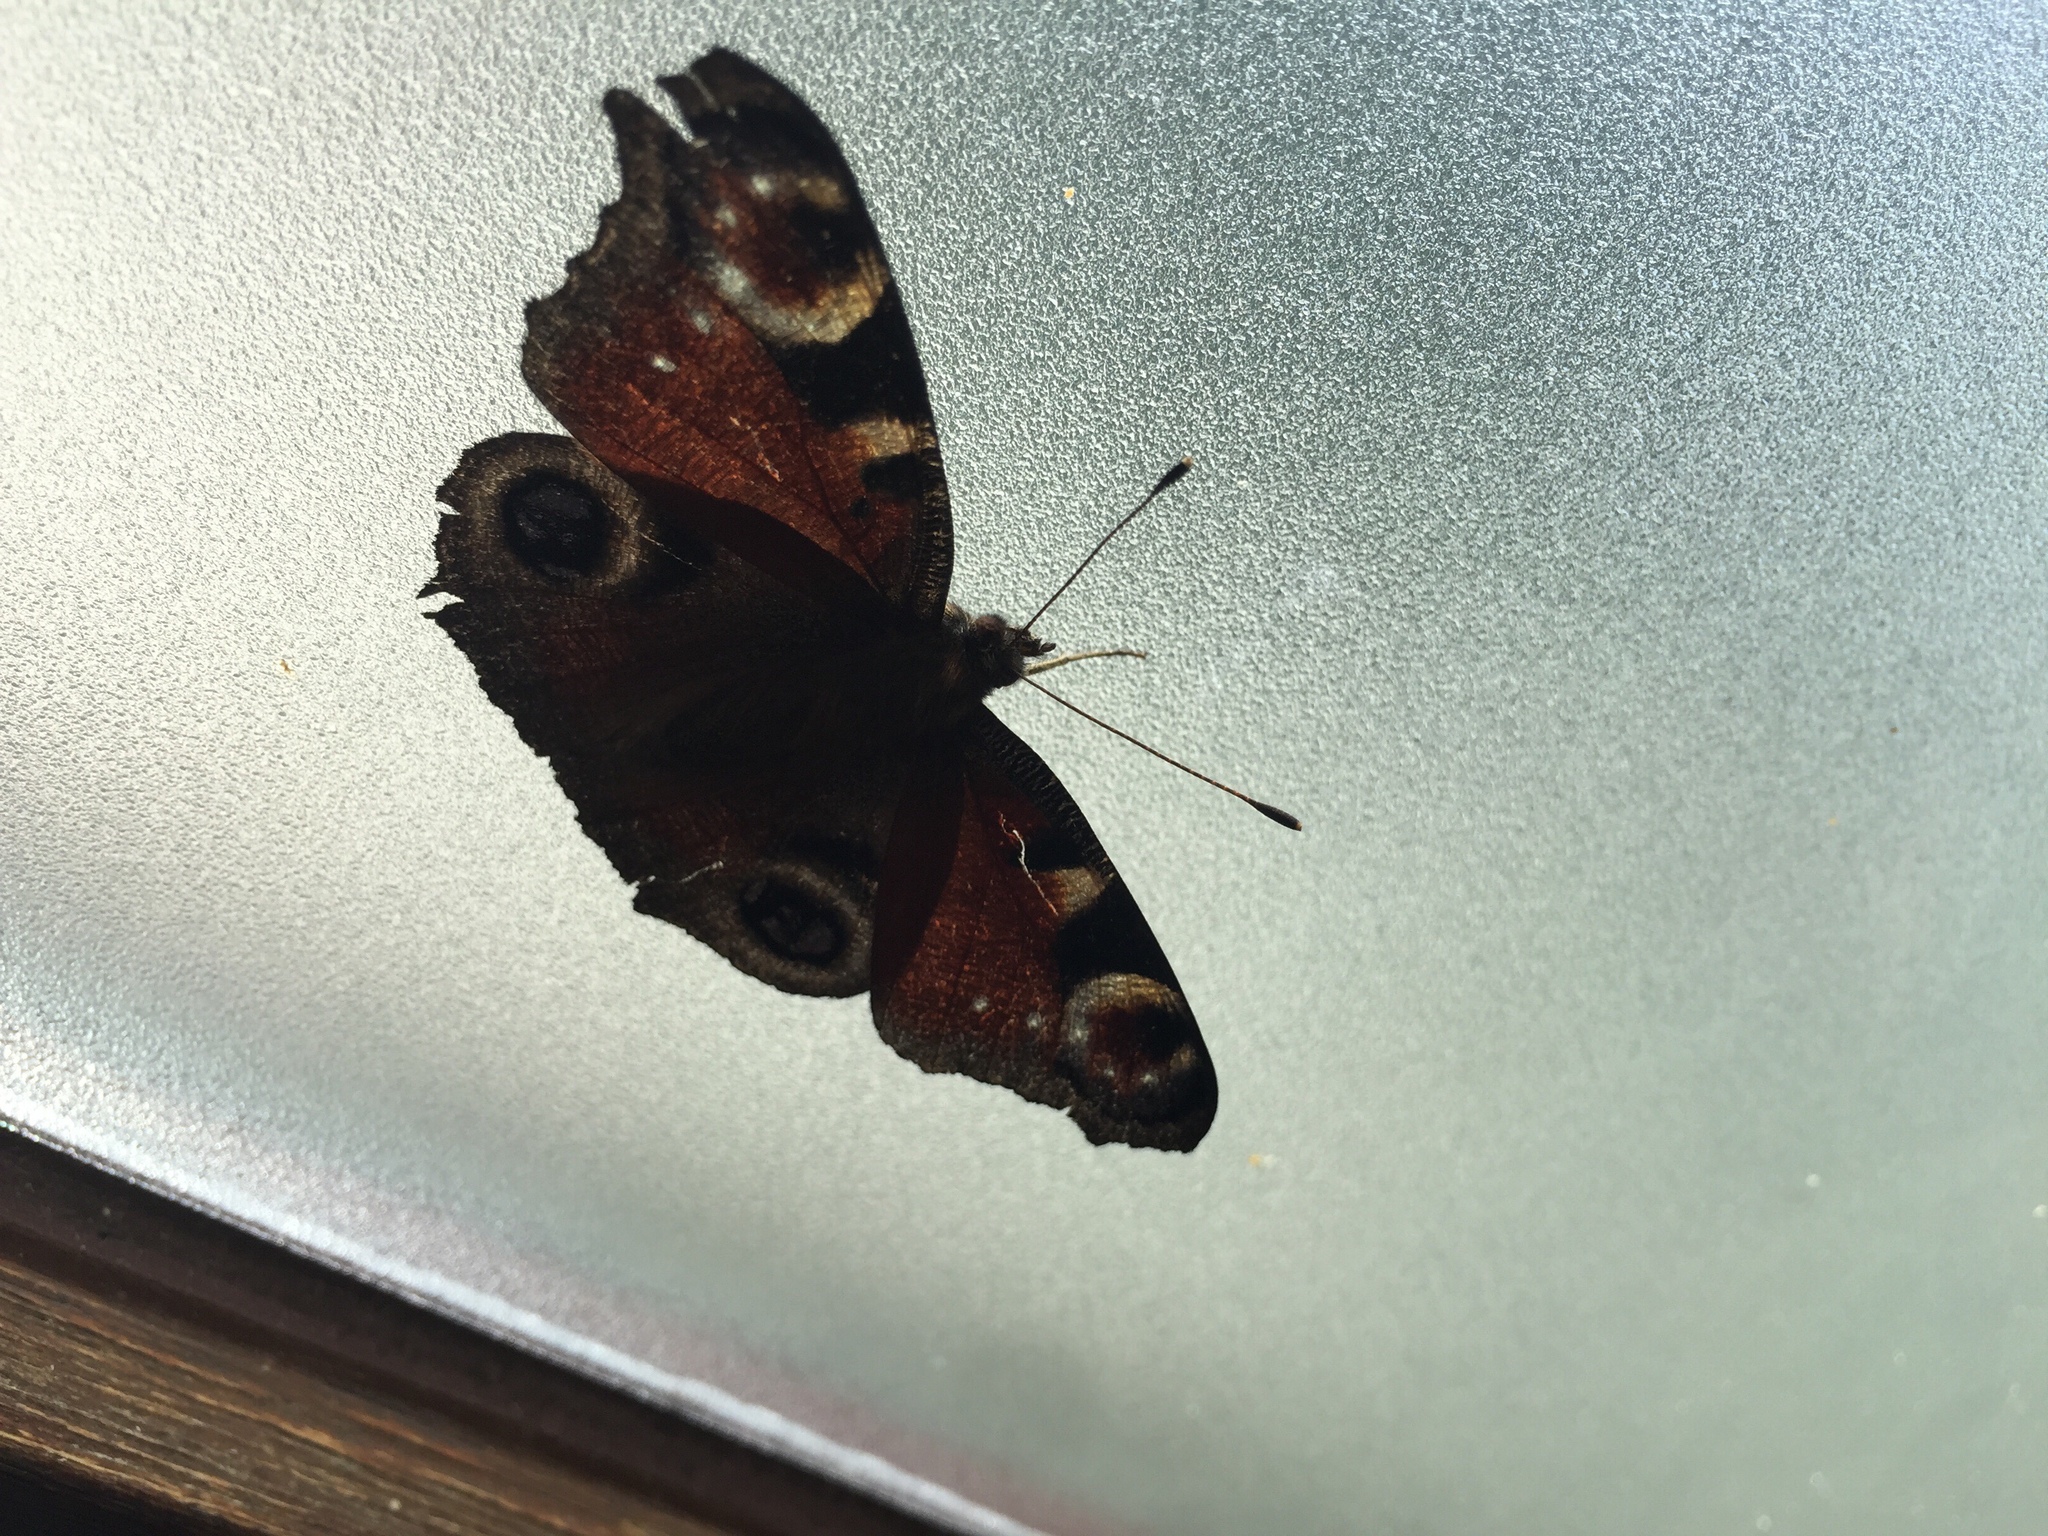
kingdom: Animalia
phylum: Arthropoda
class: Insecta
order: Lepidoptera
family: Nymphalidae
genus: Aglais
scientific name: Aglais io
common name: Peacock
